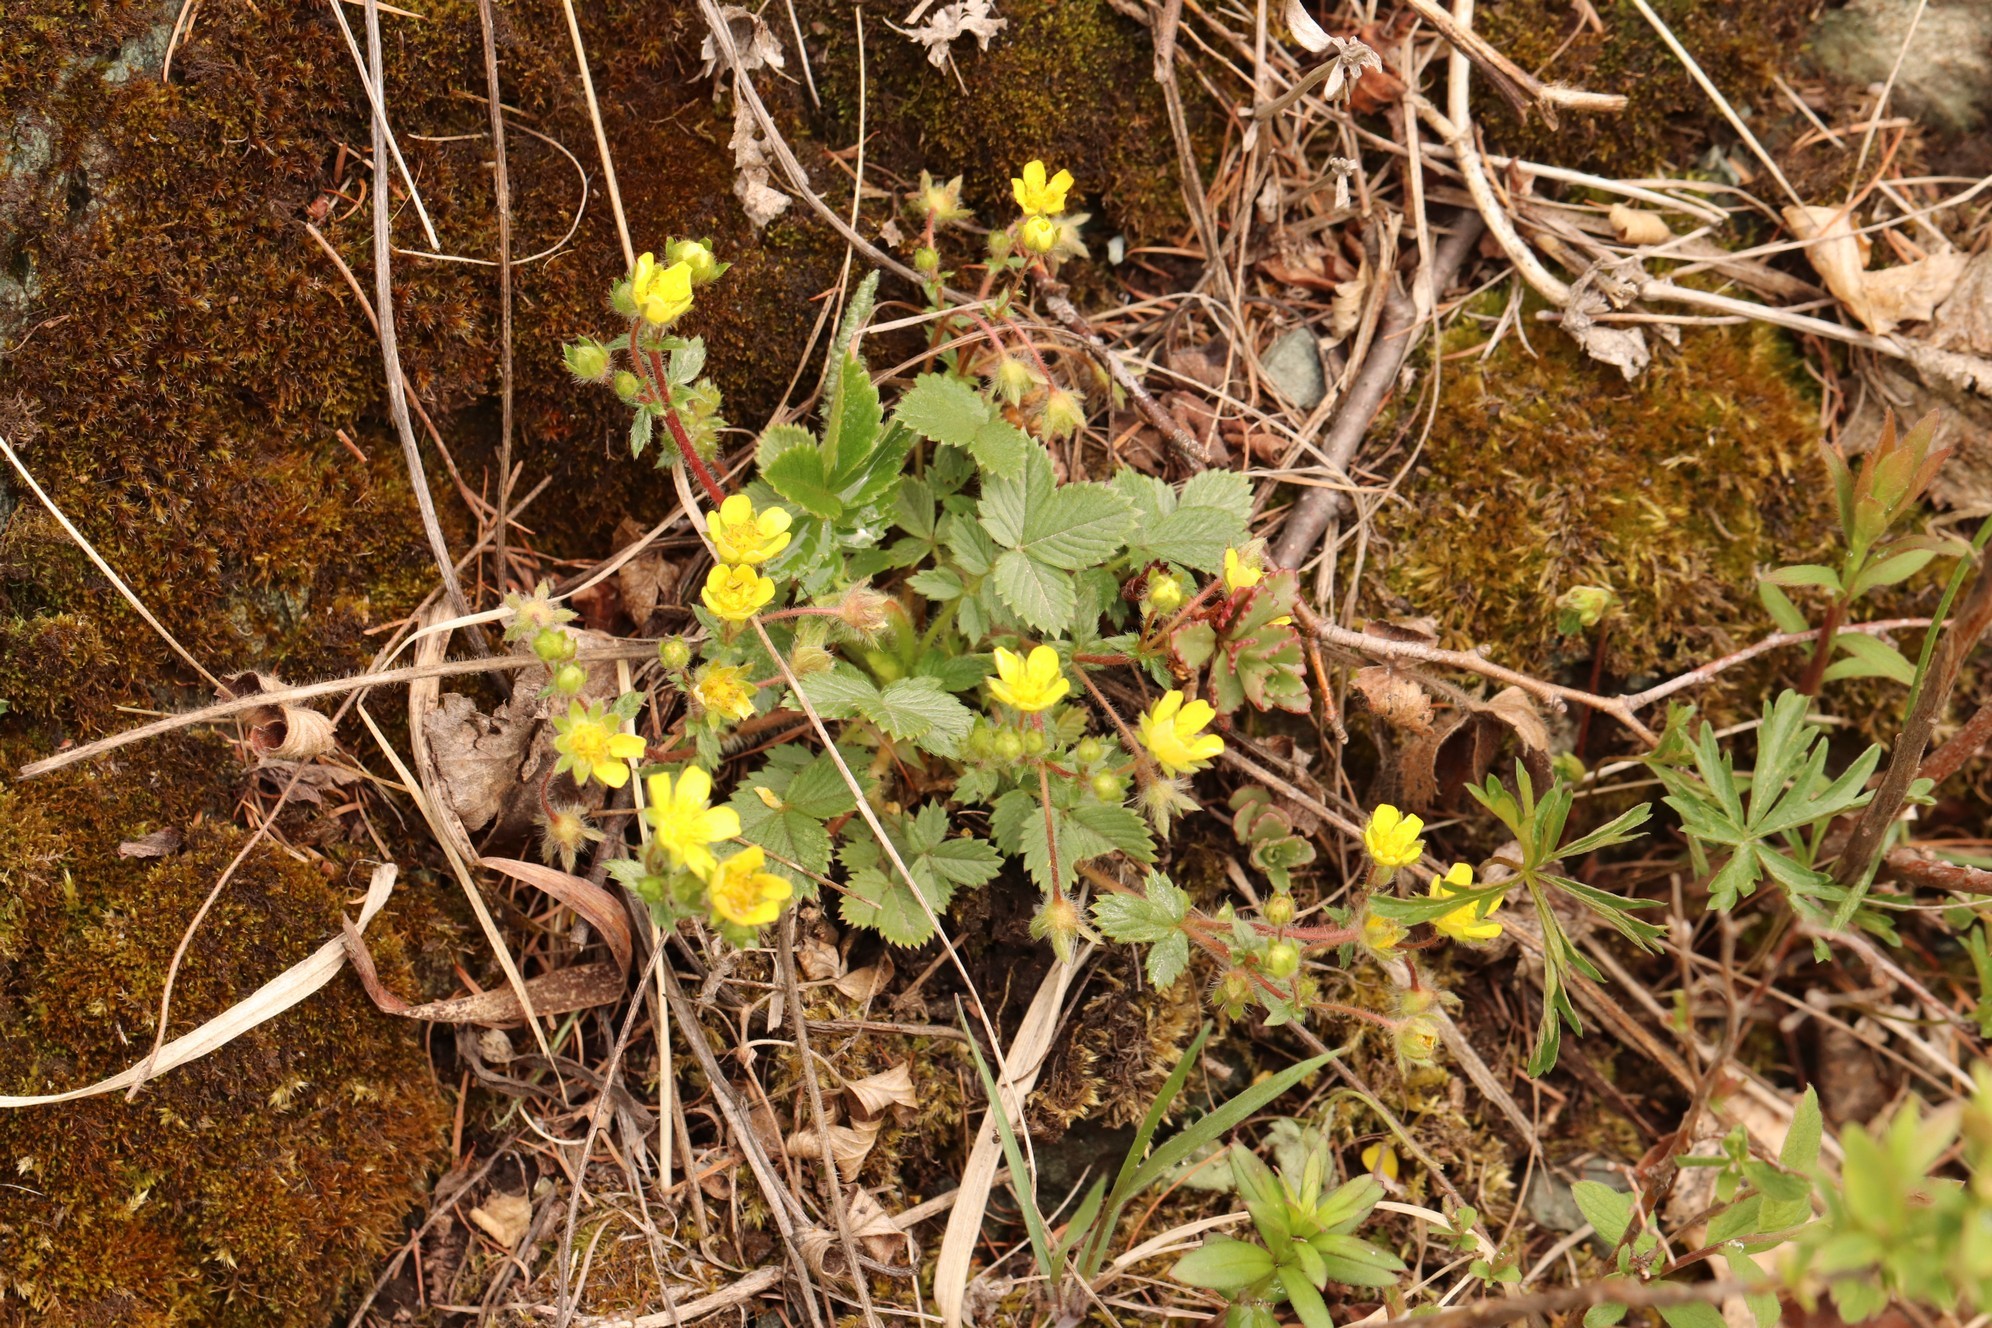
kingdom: Plantae
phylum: Tracheophyta
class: Magnoliopsida
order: Rosales
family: Rosaceae
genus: Potentilla
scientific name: Potentilla fragarioides
